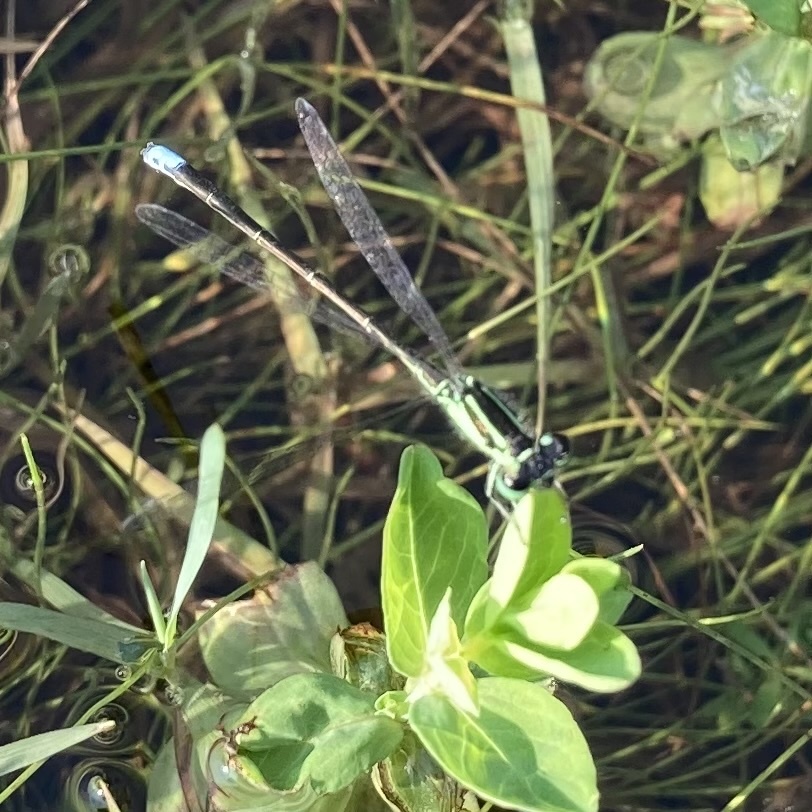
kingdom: Animalia
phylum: Arthropoda
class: Insecta
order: Odonata
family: Coenagrionidae
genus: Ischnura
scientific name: Ischnura verticalis
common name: Eastern forktail
